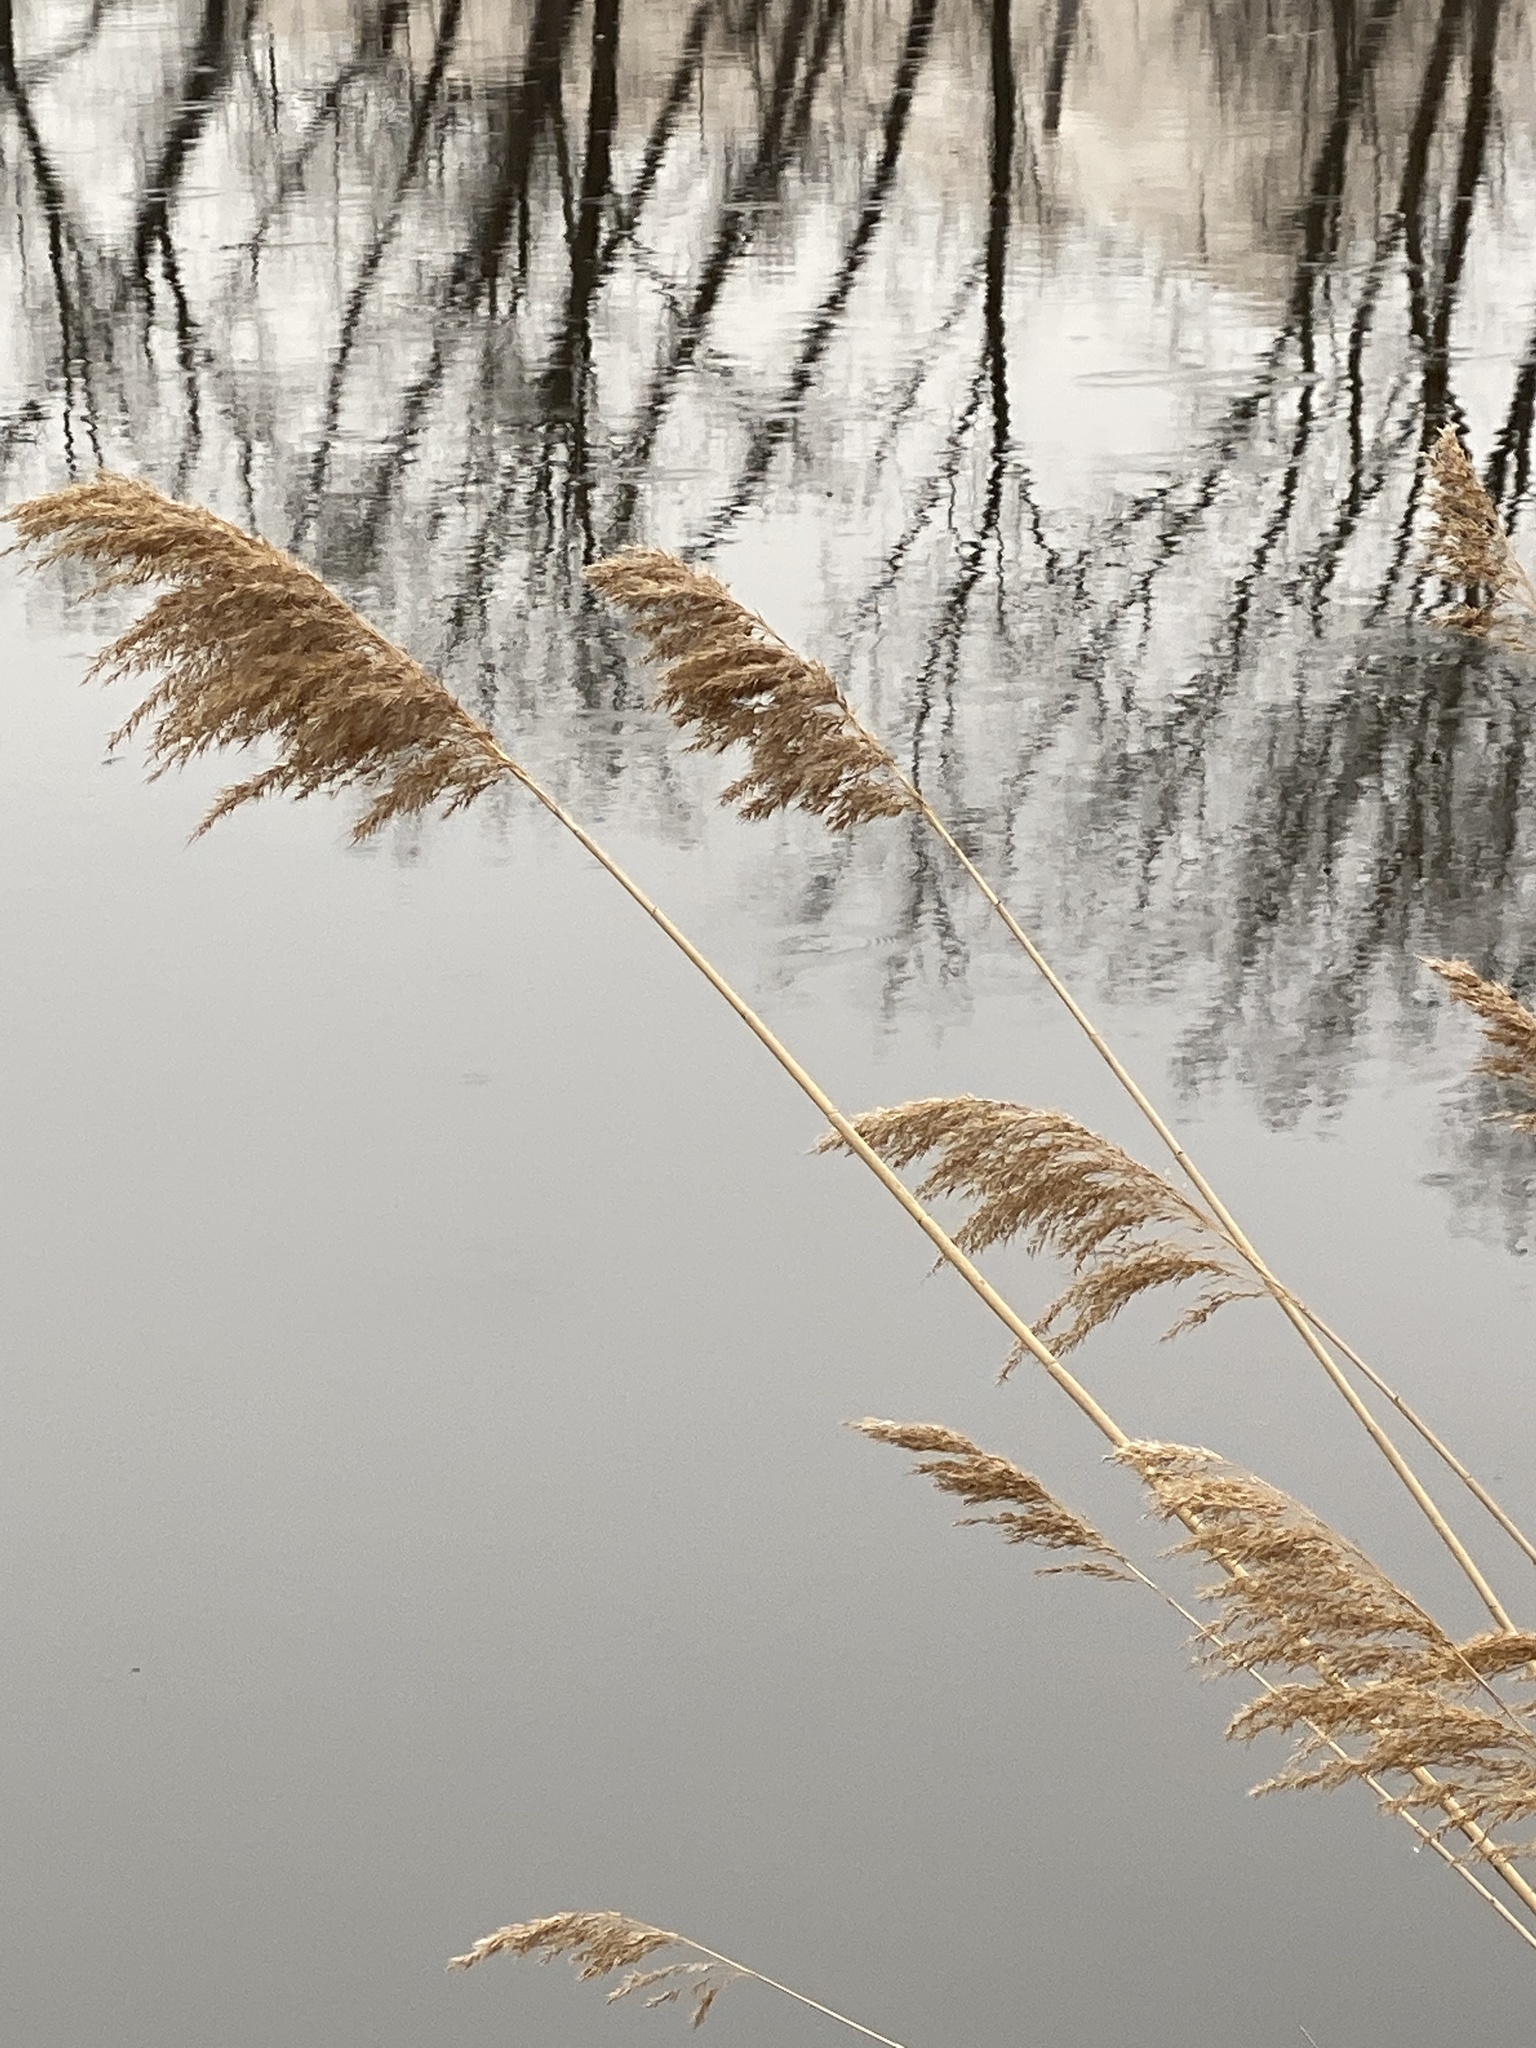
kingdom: Plantae
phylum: Tracheophyta
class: Liliopsida
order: Poales
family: Poaceae
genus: Phragmites
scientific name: Phragmites australis
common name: Common reed
